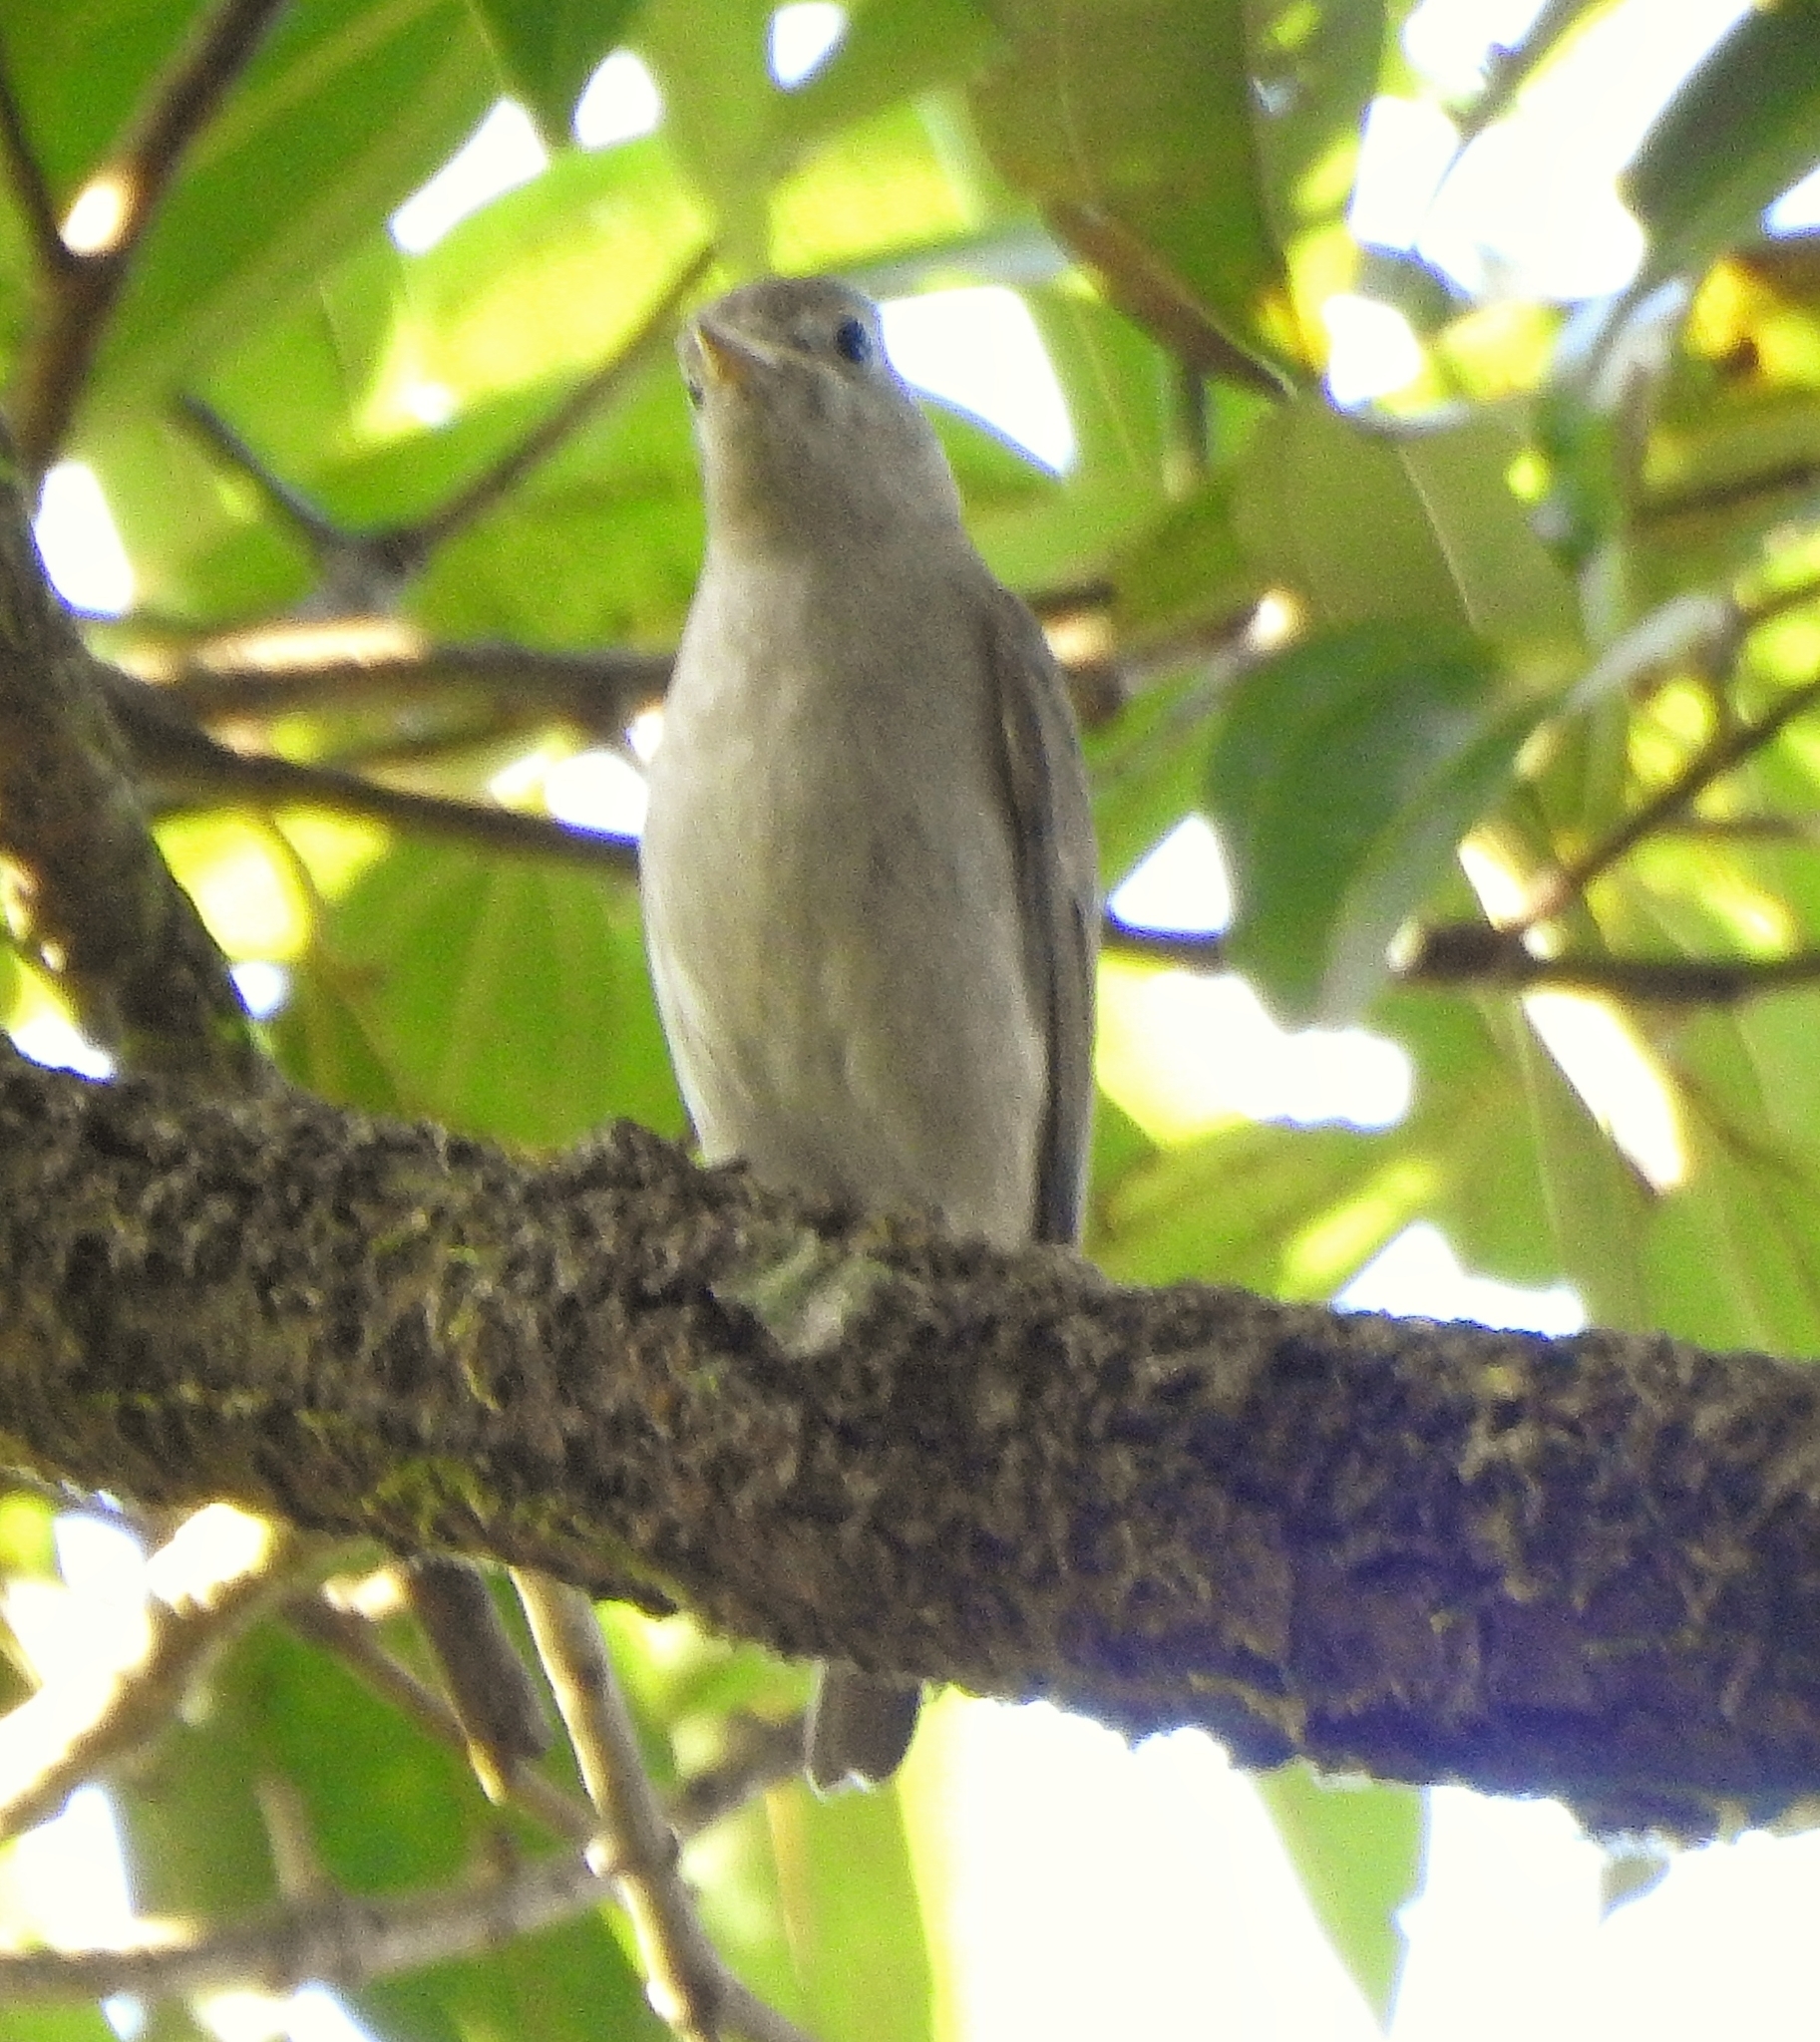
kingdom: Animalia
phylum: Chordata
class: Aves
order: Passeriformes
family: Muscicapidae
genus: Muscicapa
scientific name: Muscicapa ruficauda
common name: Rusty-tailed flycatcher
